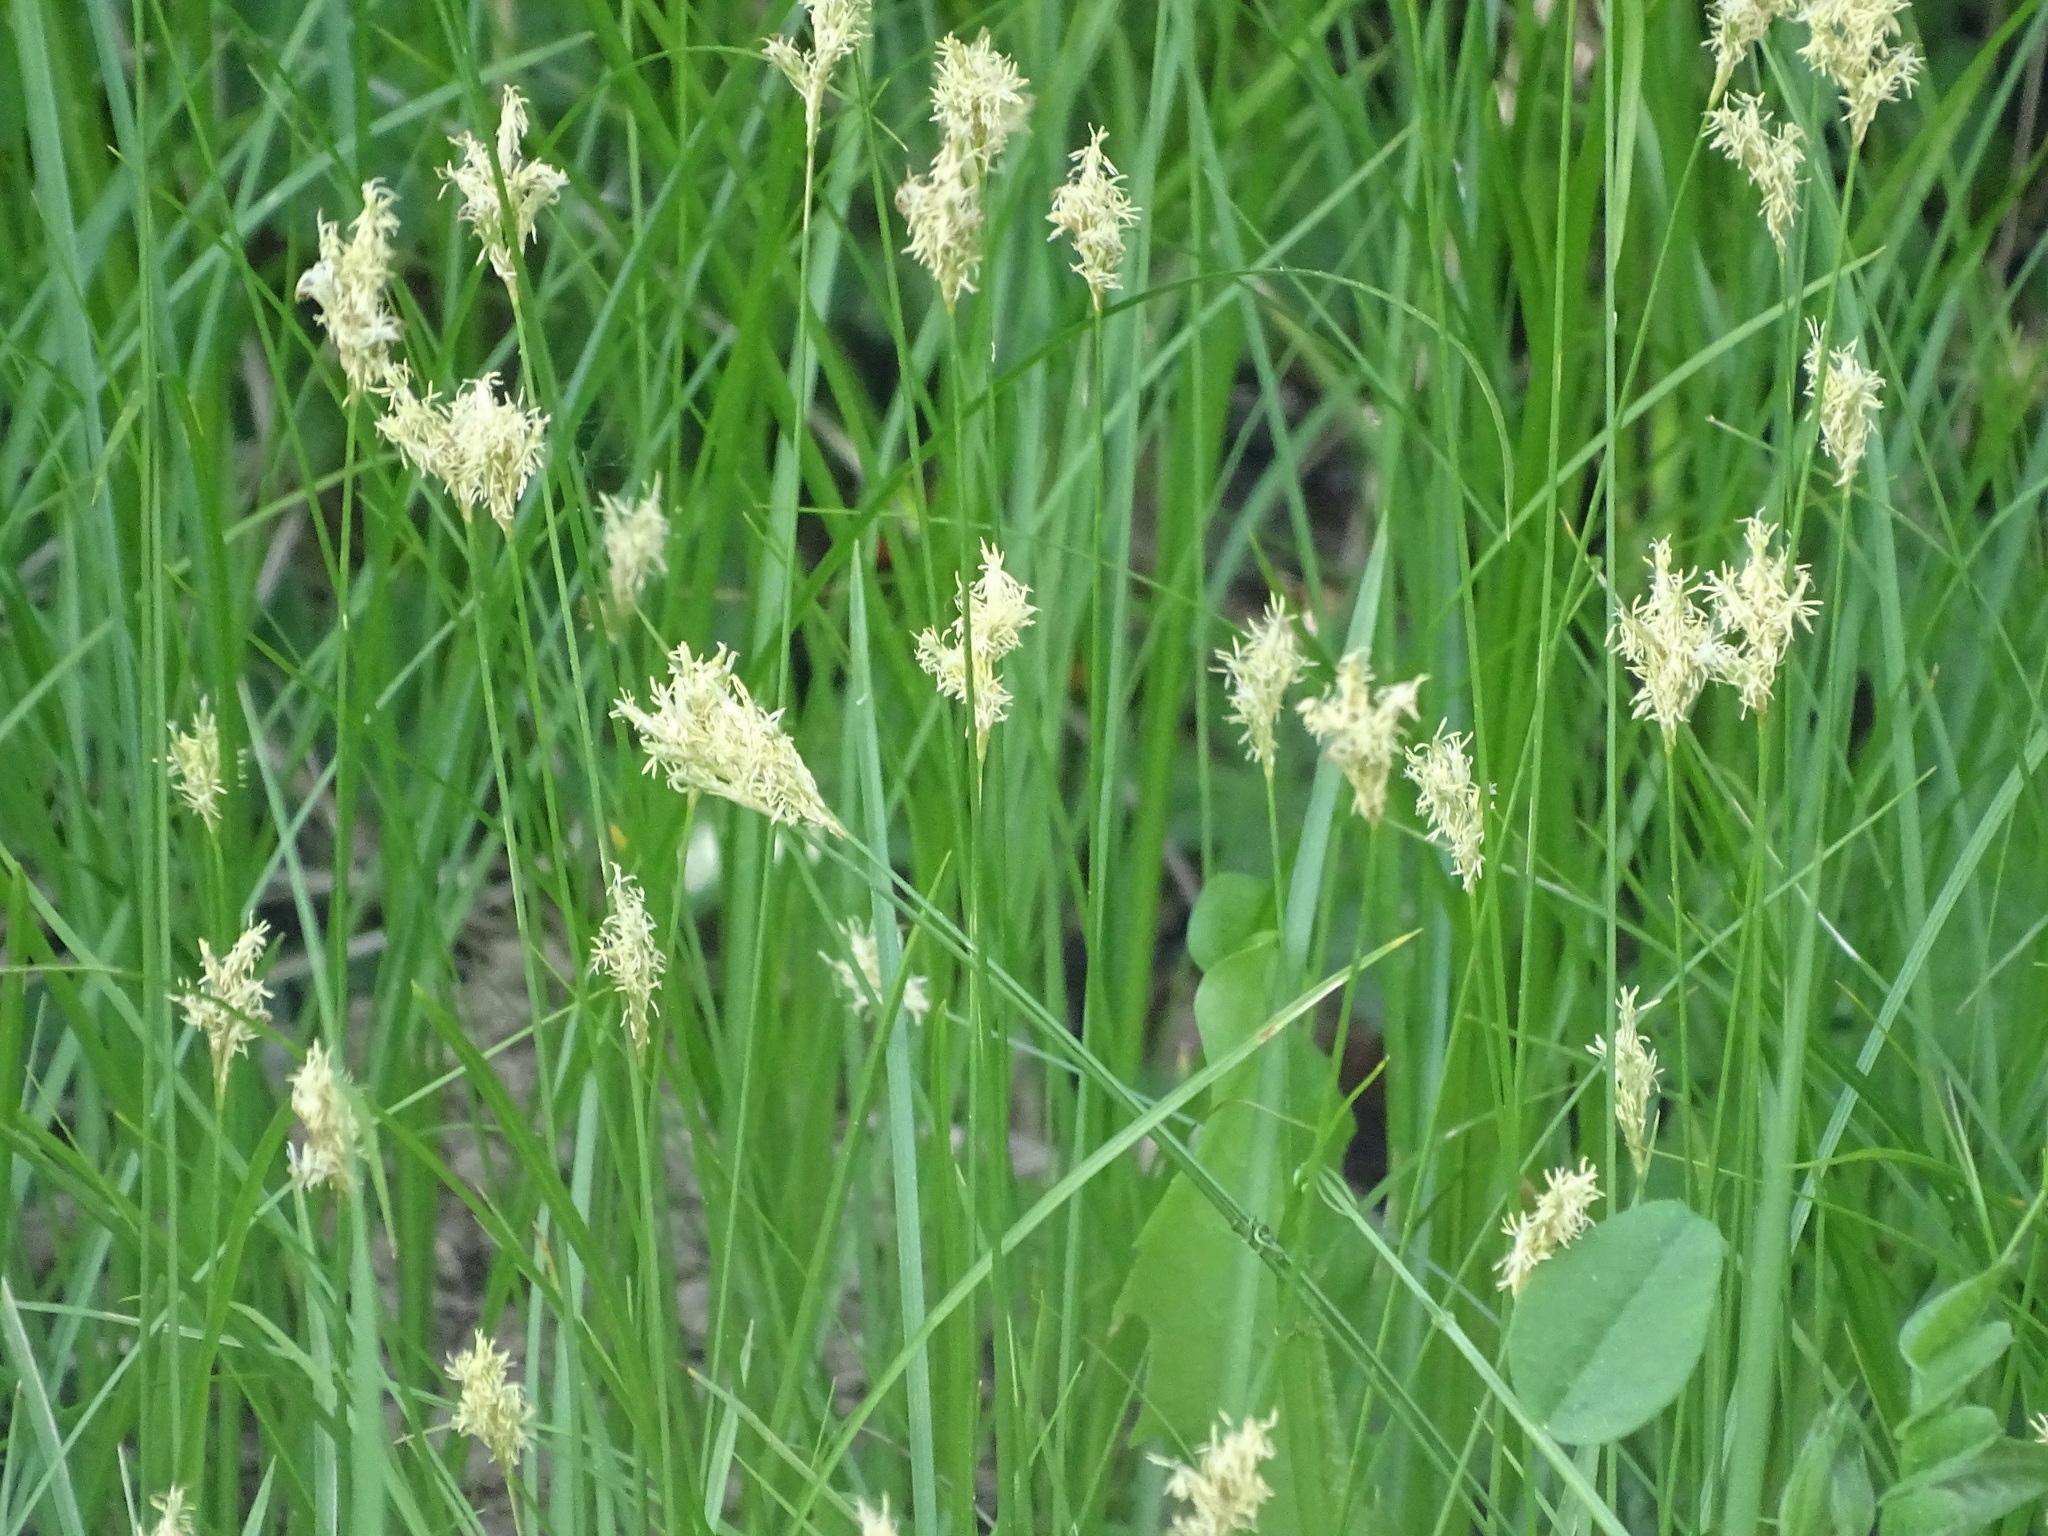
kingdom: Plantae
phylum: Tracheophyta
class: Liliopsida
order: Poales
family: Cyperaceae
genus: Carex
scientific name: Carex brizoides
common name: Quaking-grass sedge
